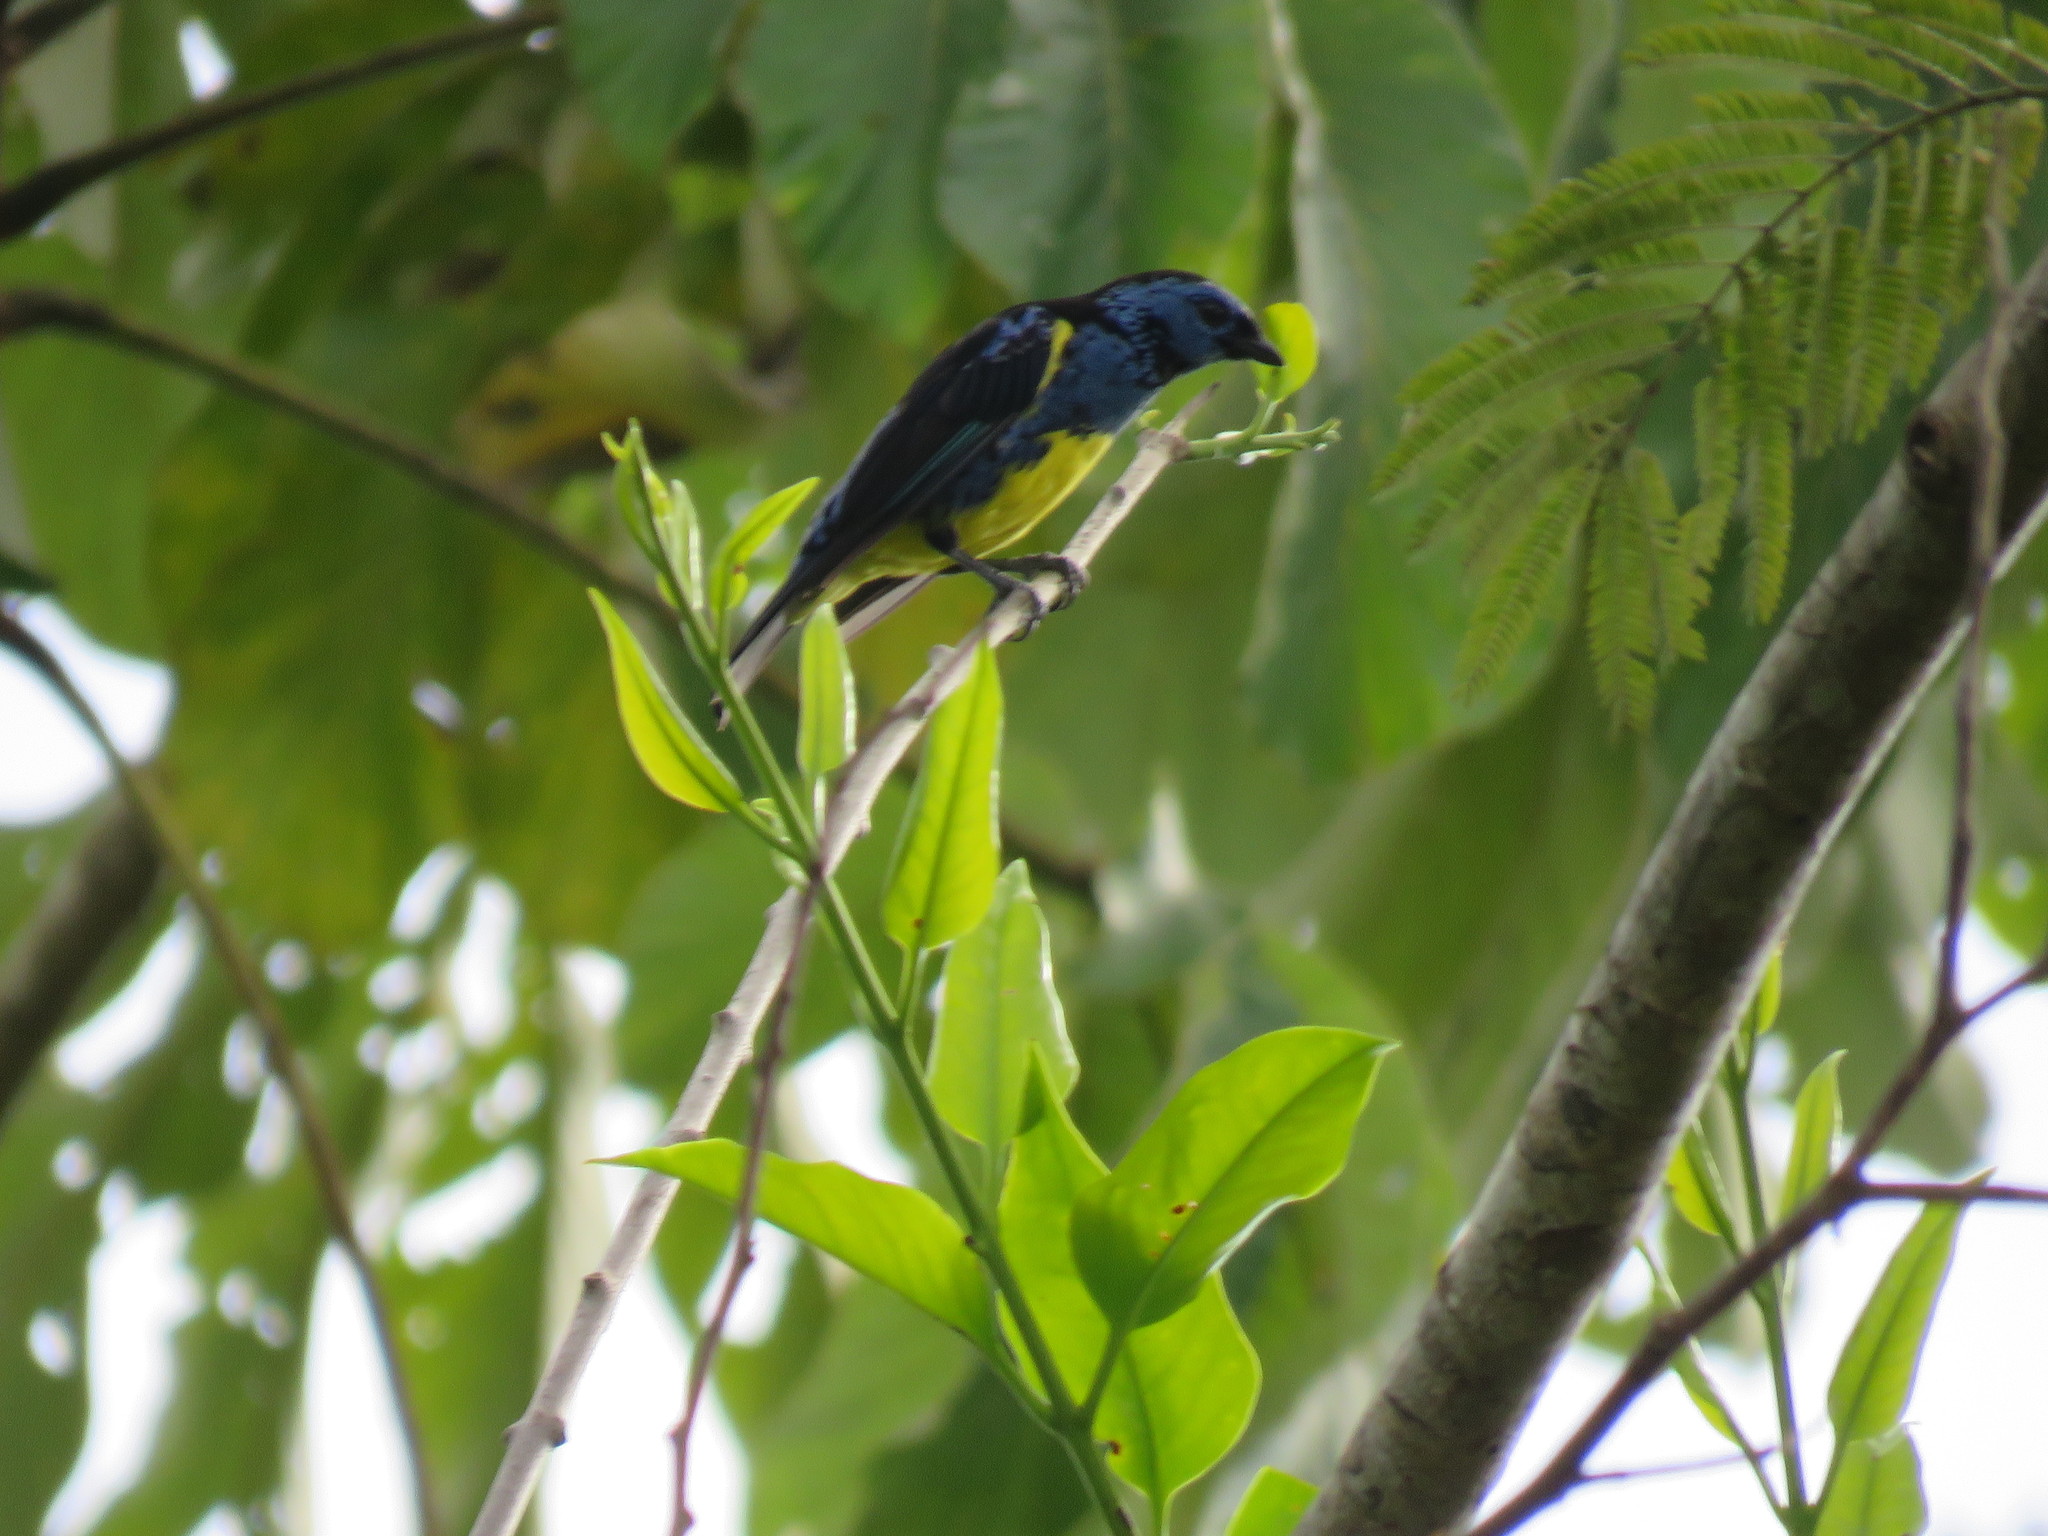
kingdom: Animalia
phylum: Chordata
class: Aves
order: Passeriformes
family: Thraupidae
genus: Tangara
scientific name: Tangara mexicana
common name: Turquoise tanager
